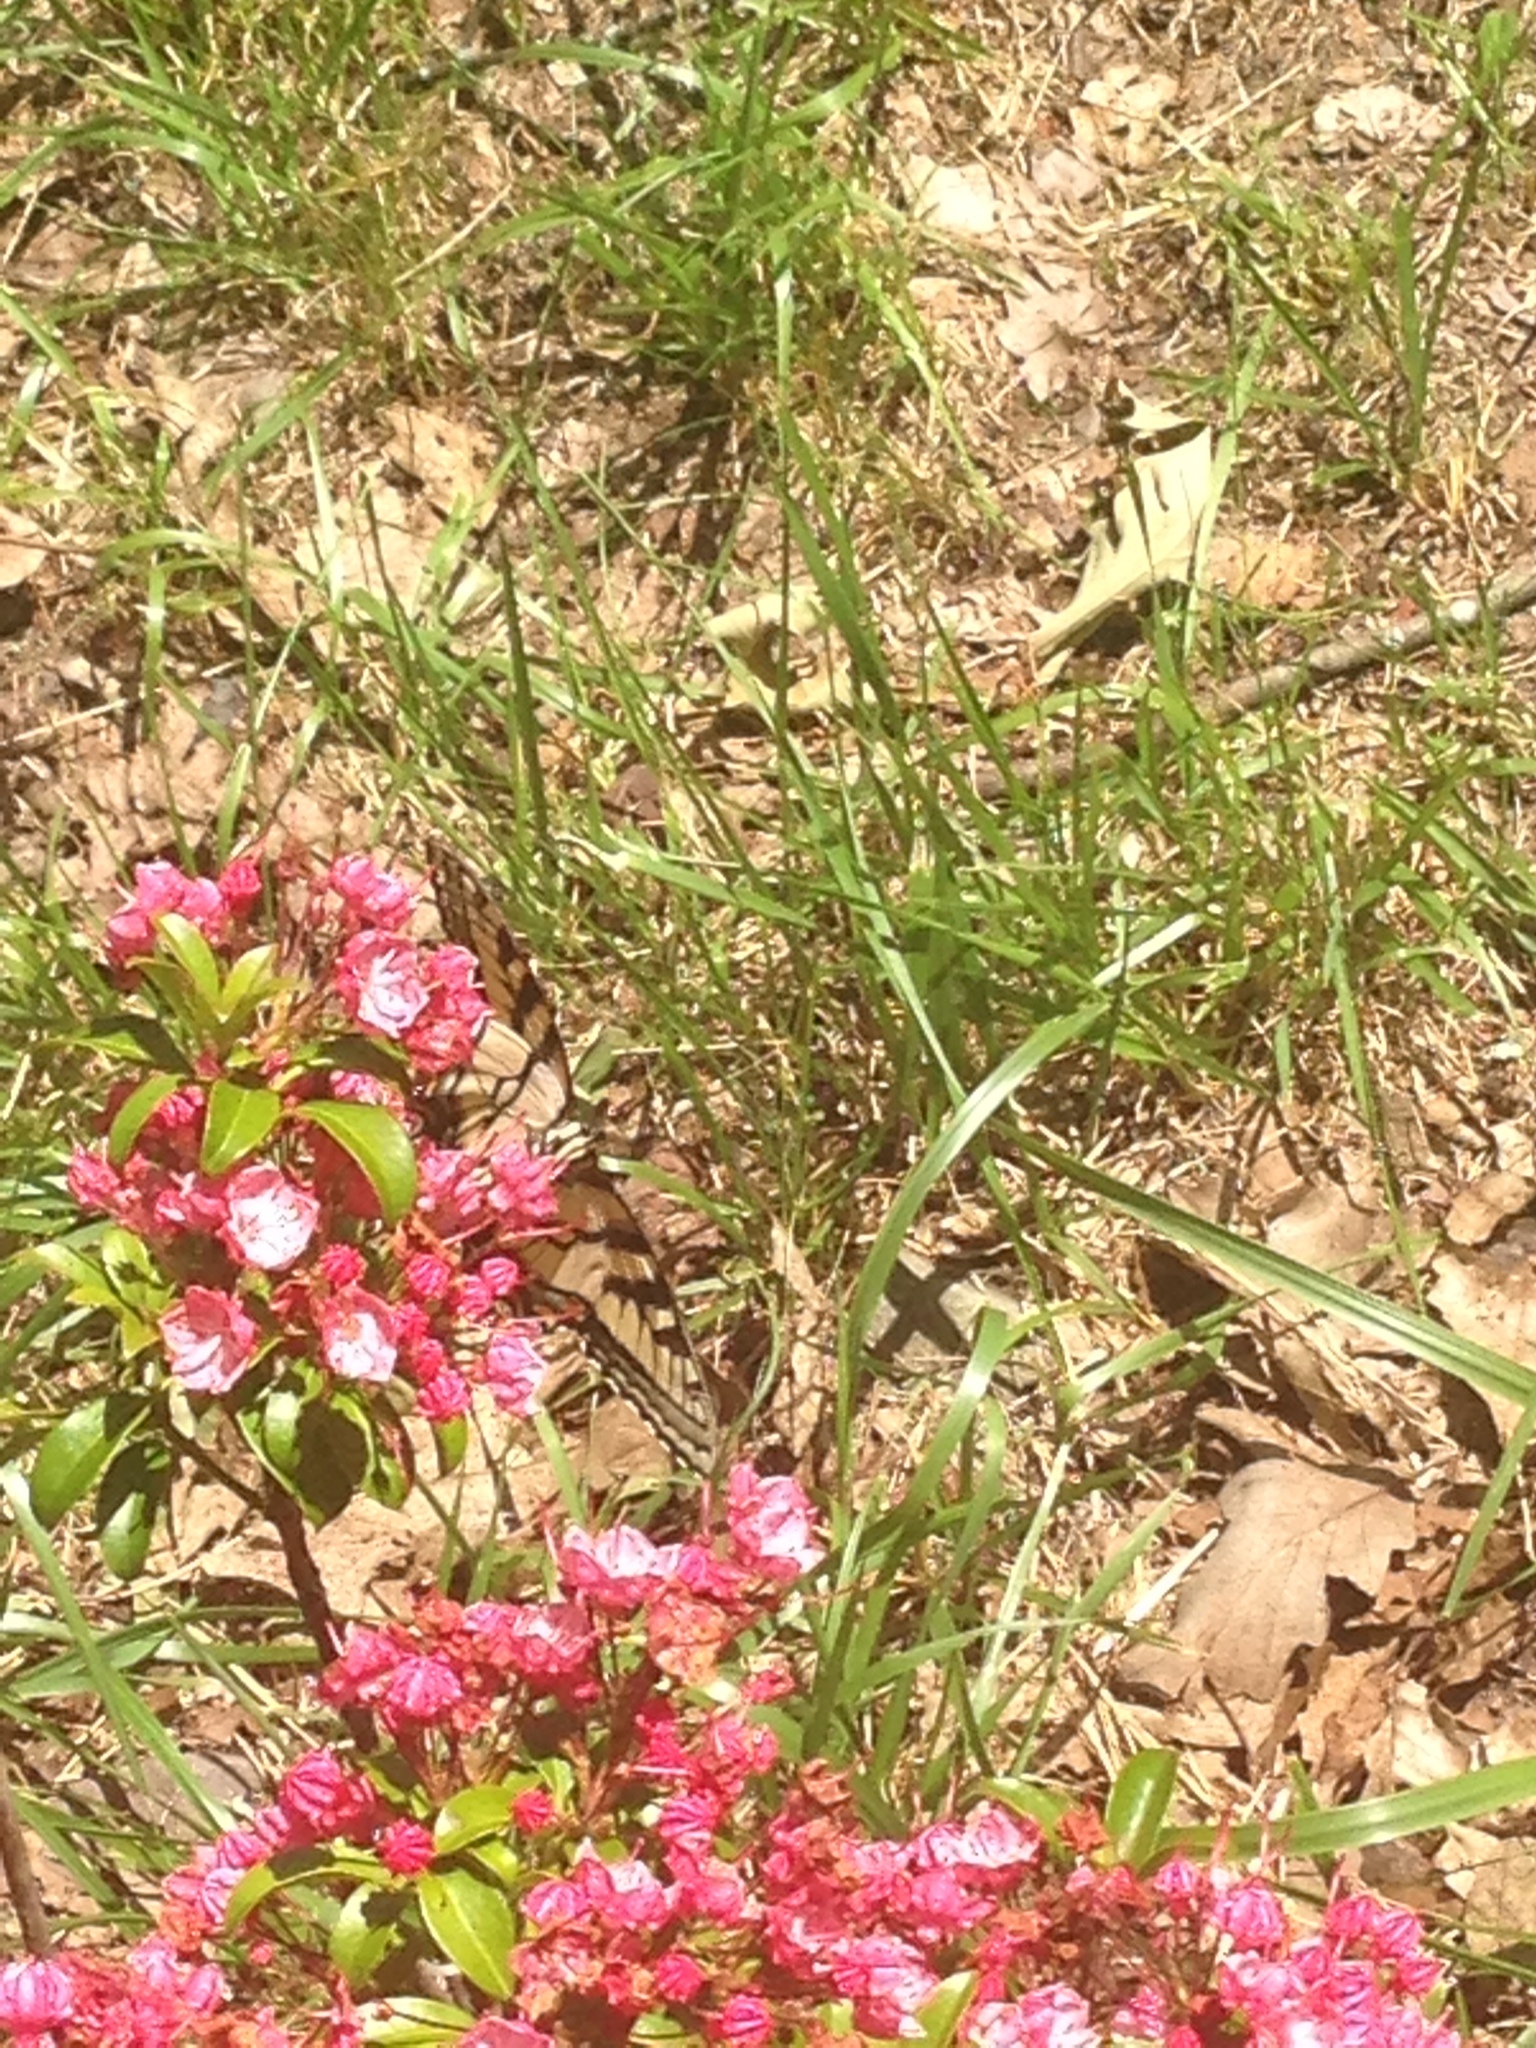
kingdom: Animalia
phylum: Arthropoda
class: Insecta
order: Lepidoptera
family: Papilionidae
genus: Papilio
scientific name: Papilio glaucus
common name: Tiger swallowtail
